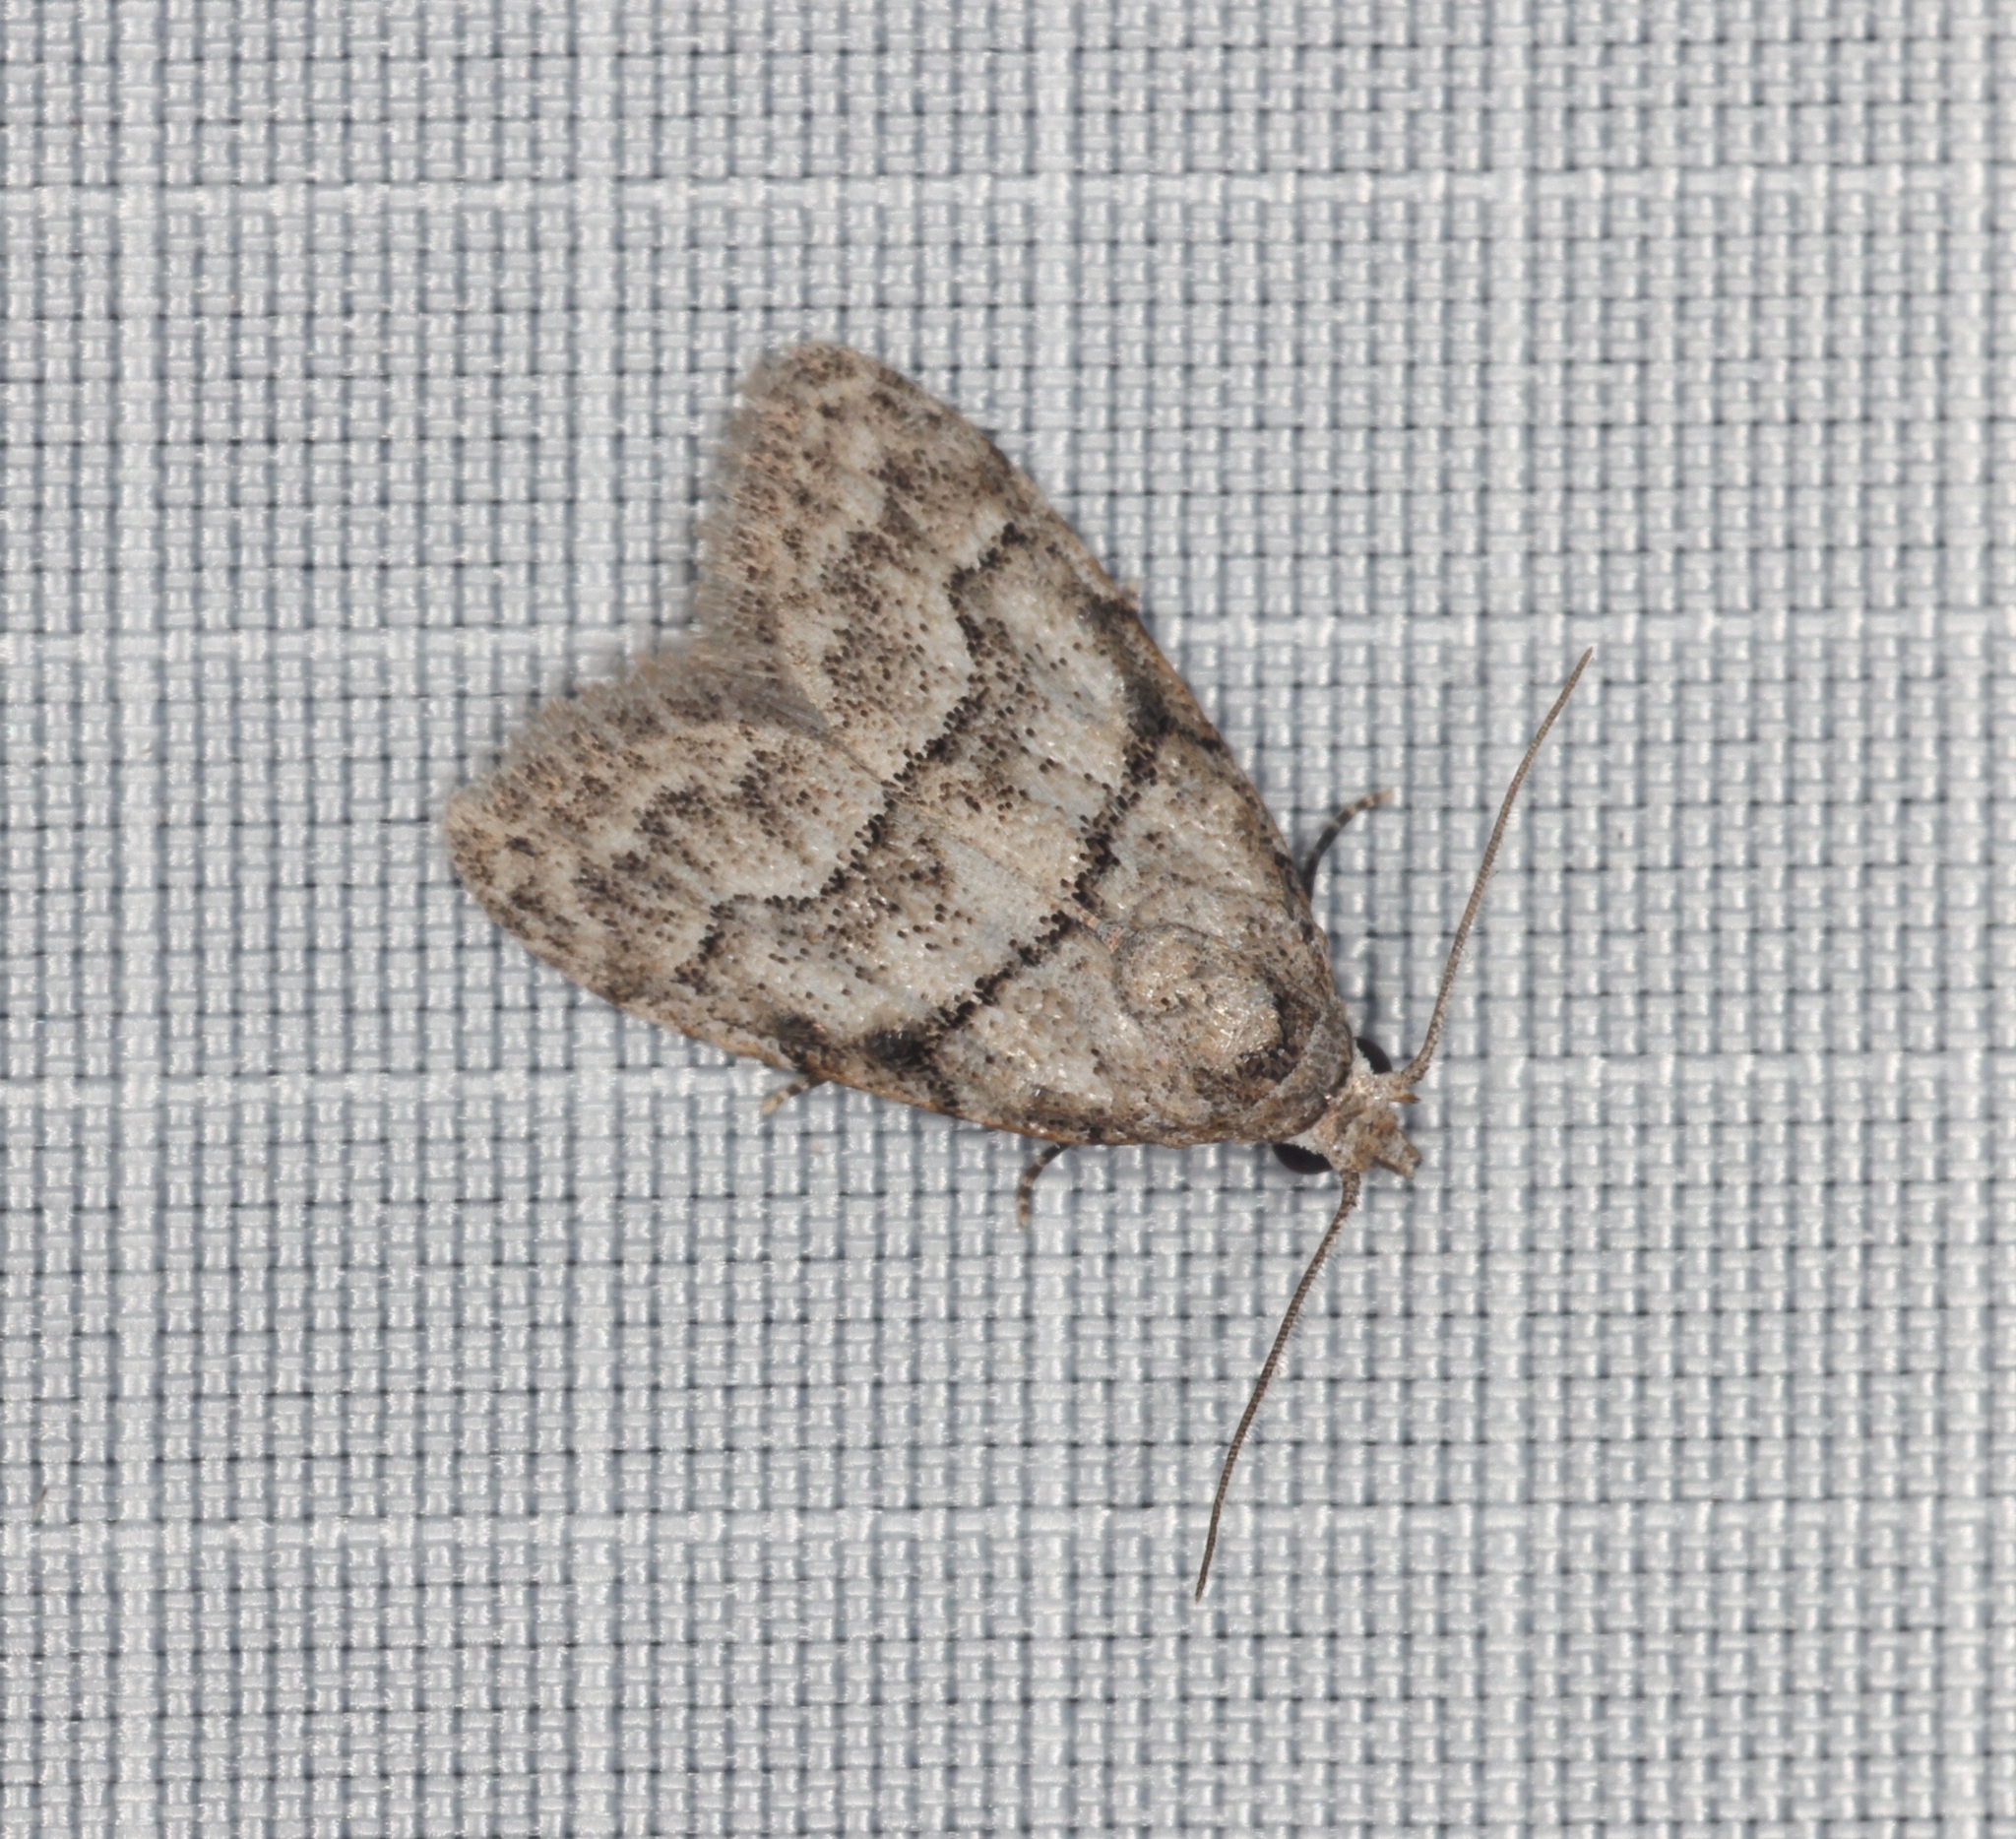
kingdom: Animalia
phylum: Arthropoda
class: Insecta
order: Lepidoptera
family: Nolidae
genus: Inouenola
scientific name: Inouenola pallescens
